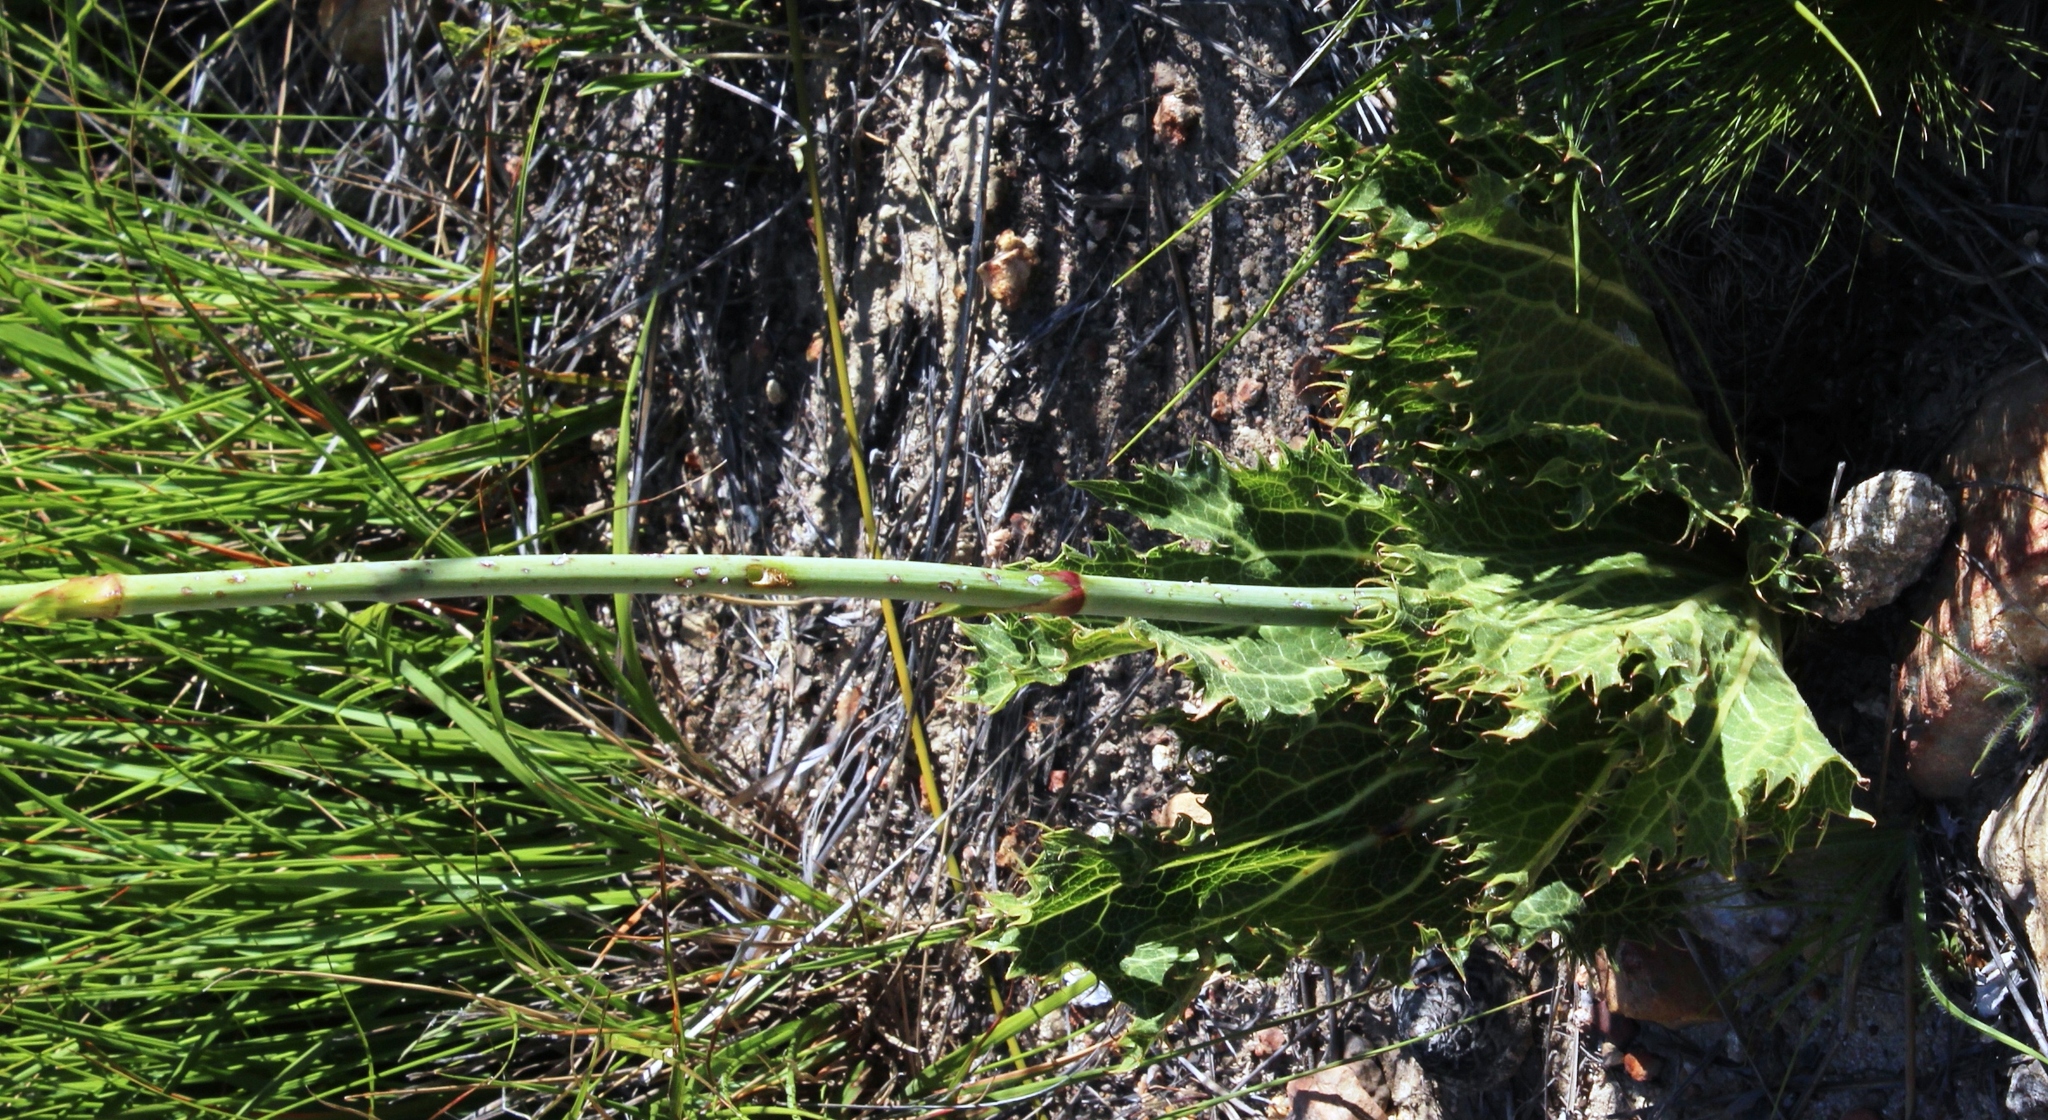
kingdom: Plantae
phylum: Tracheophyta
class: Magnoliopsida
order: Apiales
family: Apiaceae
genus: Lichtensteinia
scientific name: Lichtensteinia lacera
